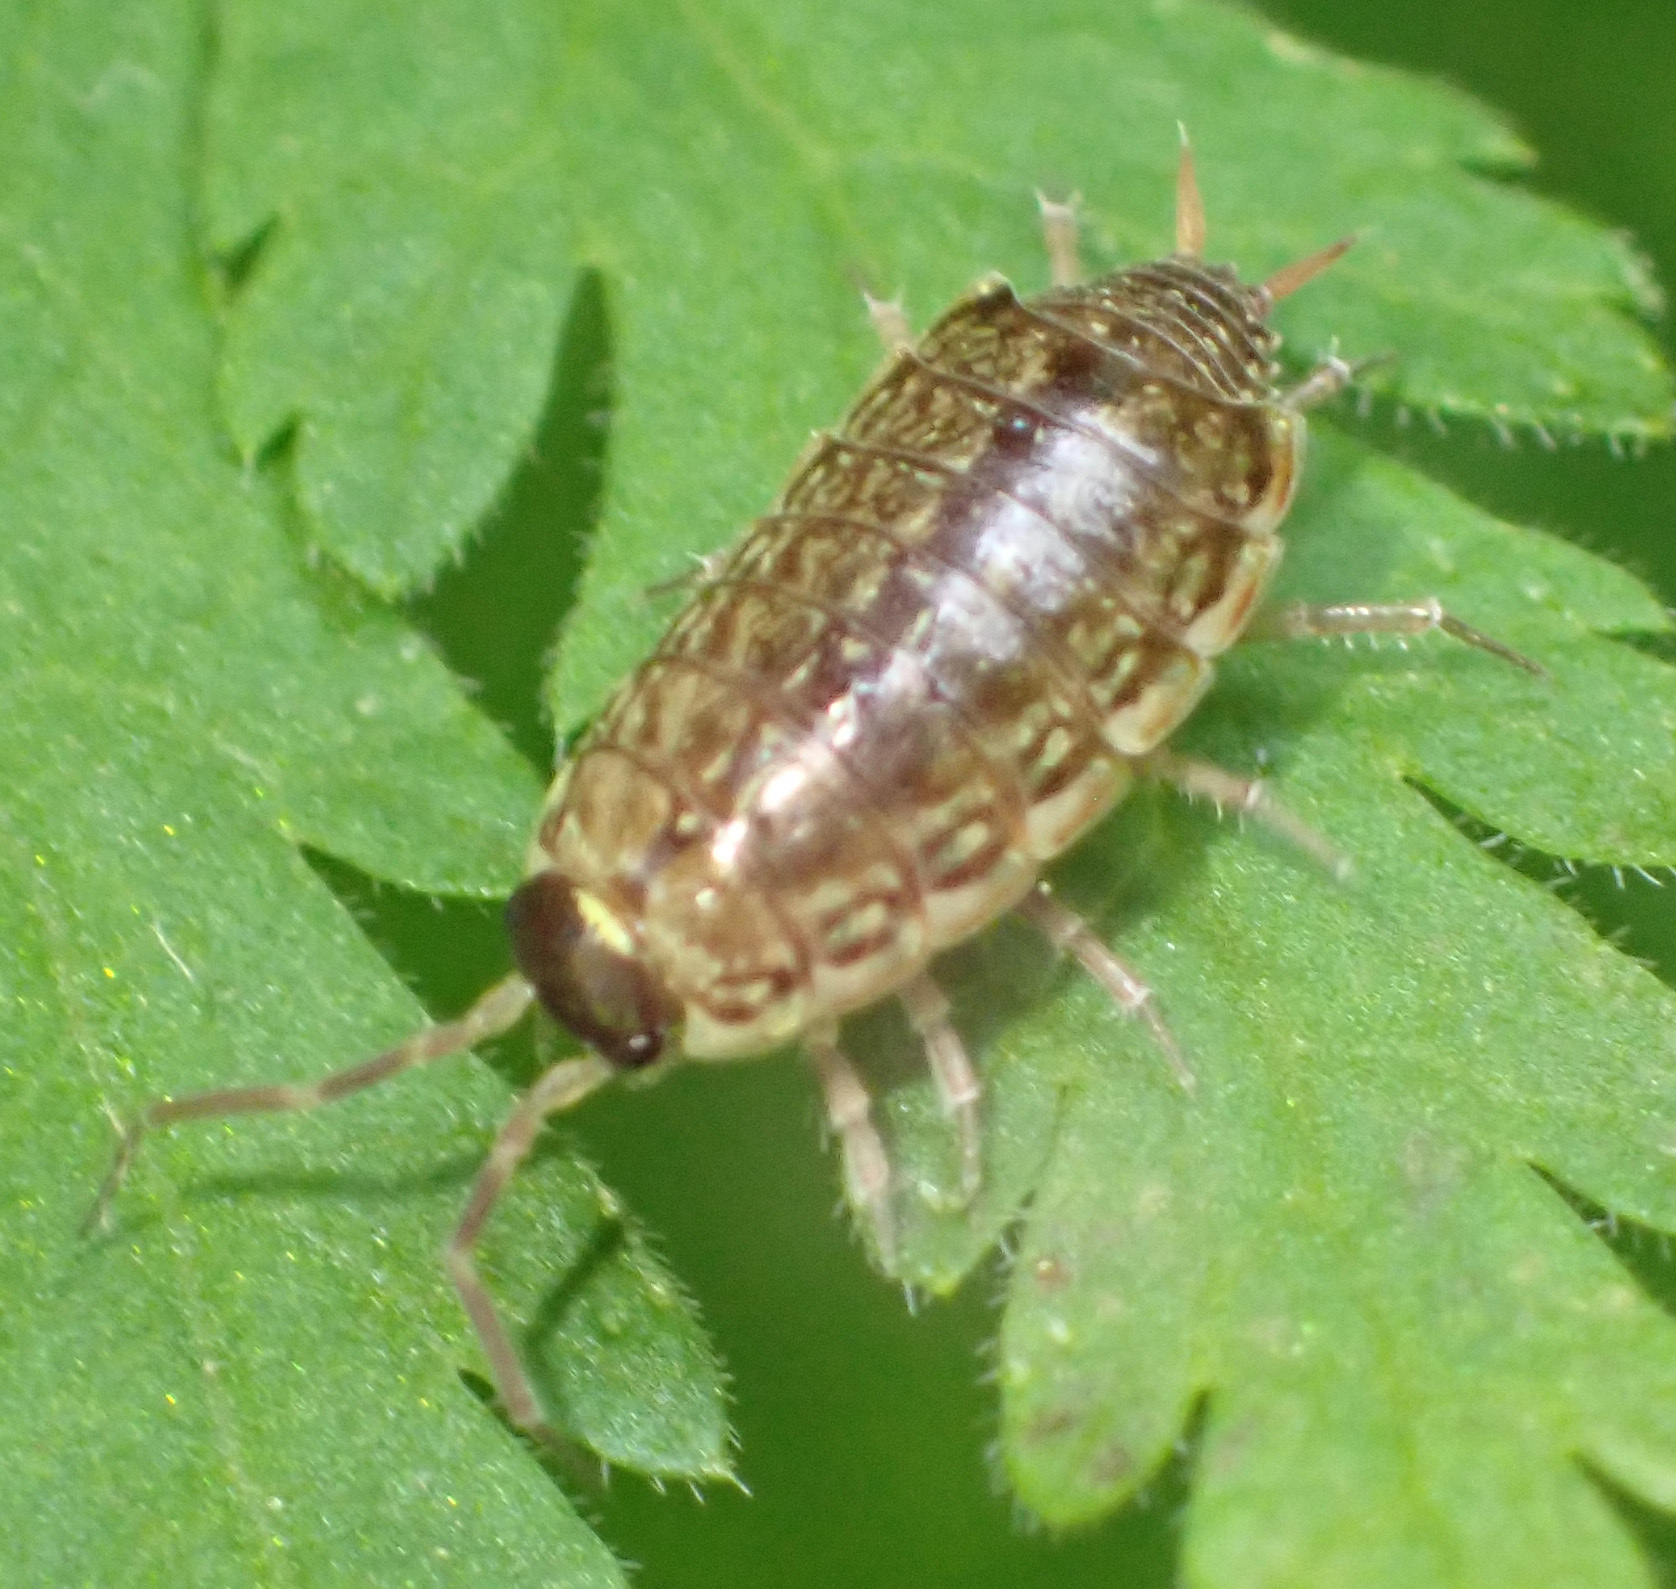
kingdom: Animalia
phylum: Arthropoda
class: Malacostraca
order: Isopoda
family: Philosciidae
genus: Philoscia
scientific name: Philoscia muscorum
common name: Common striped woodlouse
